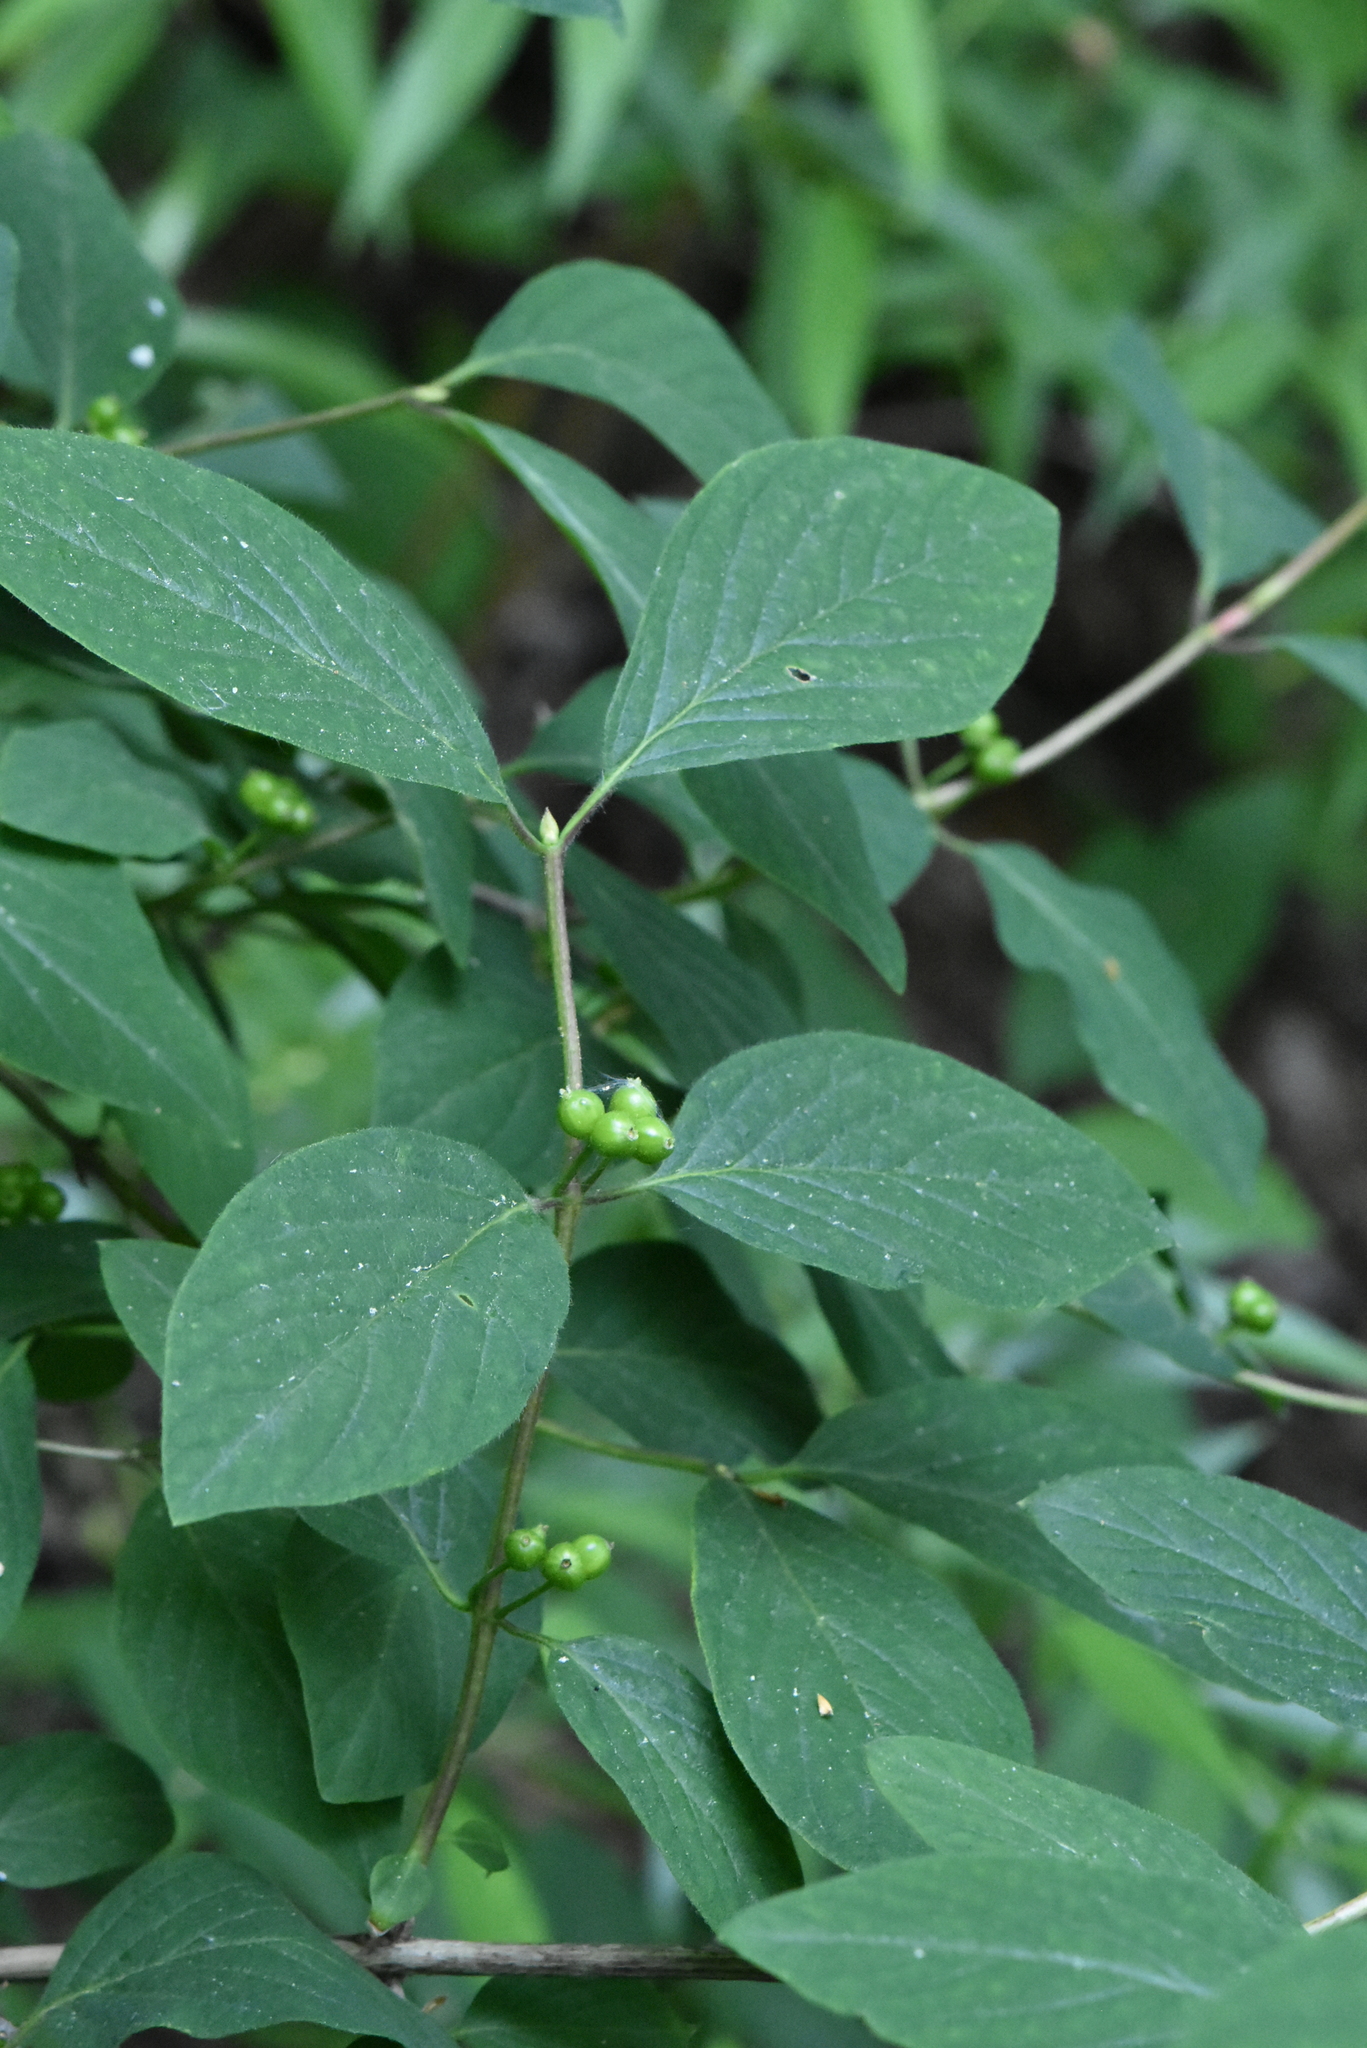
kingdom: Plantae
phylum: Tracheophyta
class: Magnoliopsida
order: Dipsacales
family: Caprifoliaceae
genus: Lonicera
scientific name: Lonicera xylosteum
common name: Fly honeysuckle
